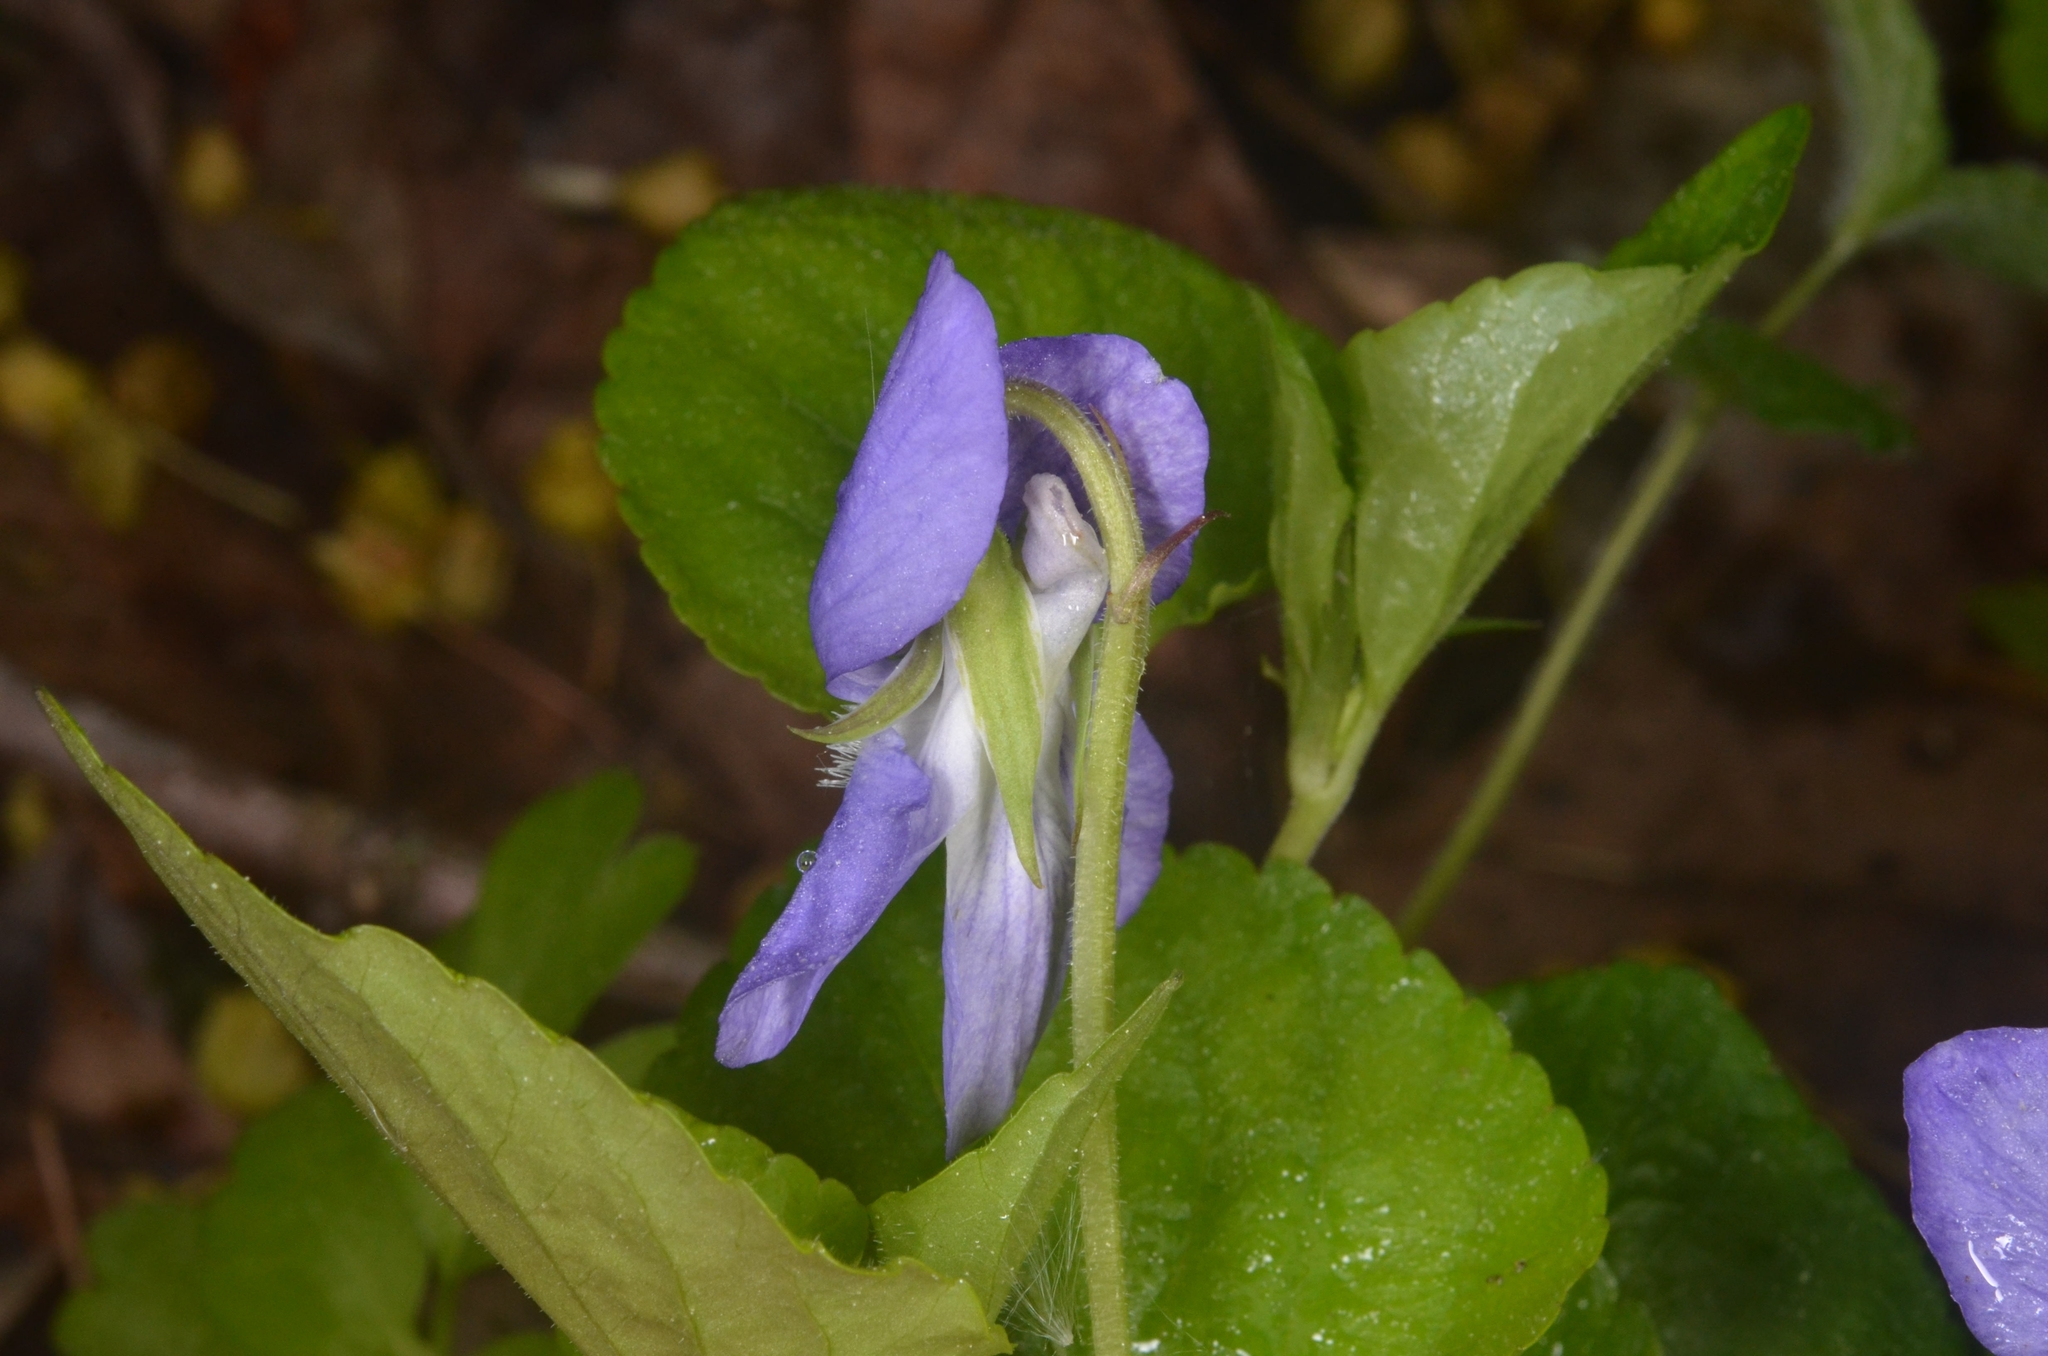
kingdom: Plantae
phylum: Tracheophyta
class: Magnoliopsida
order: Malpighiales
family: Violaceae
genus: Viola
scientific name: Viola riviniana
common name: Common dog-violet
